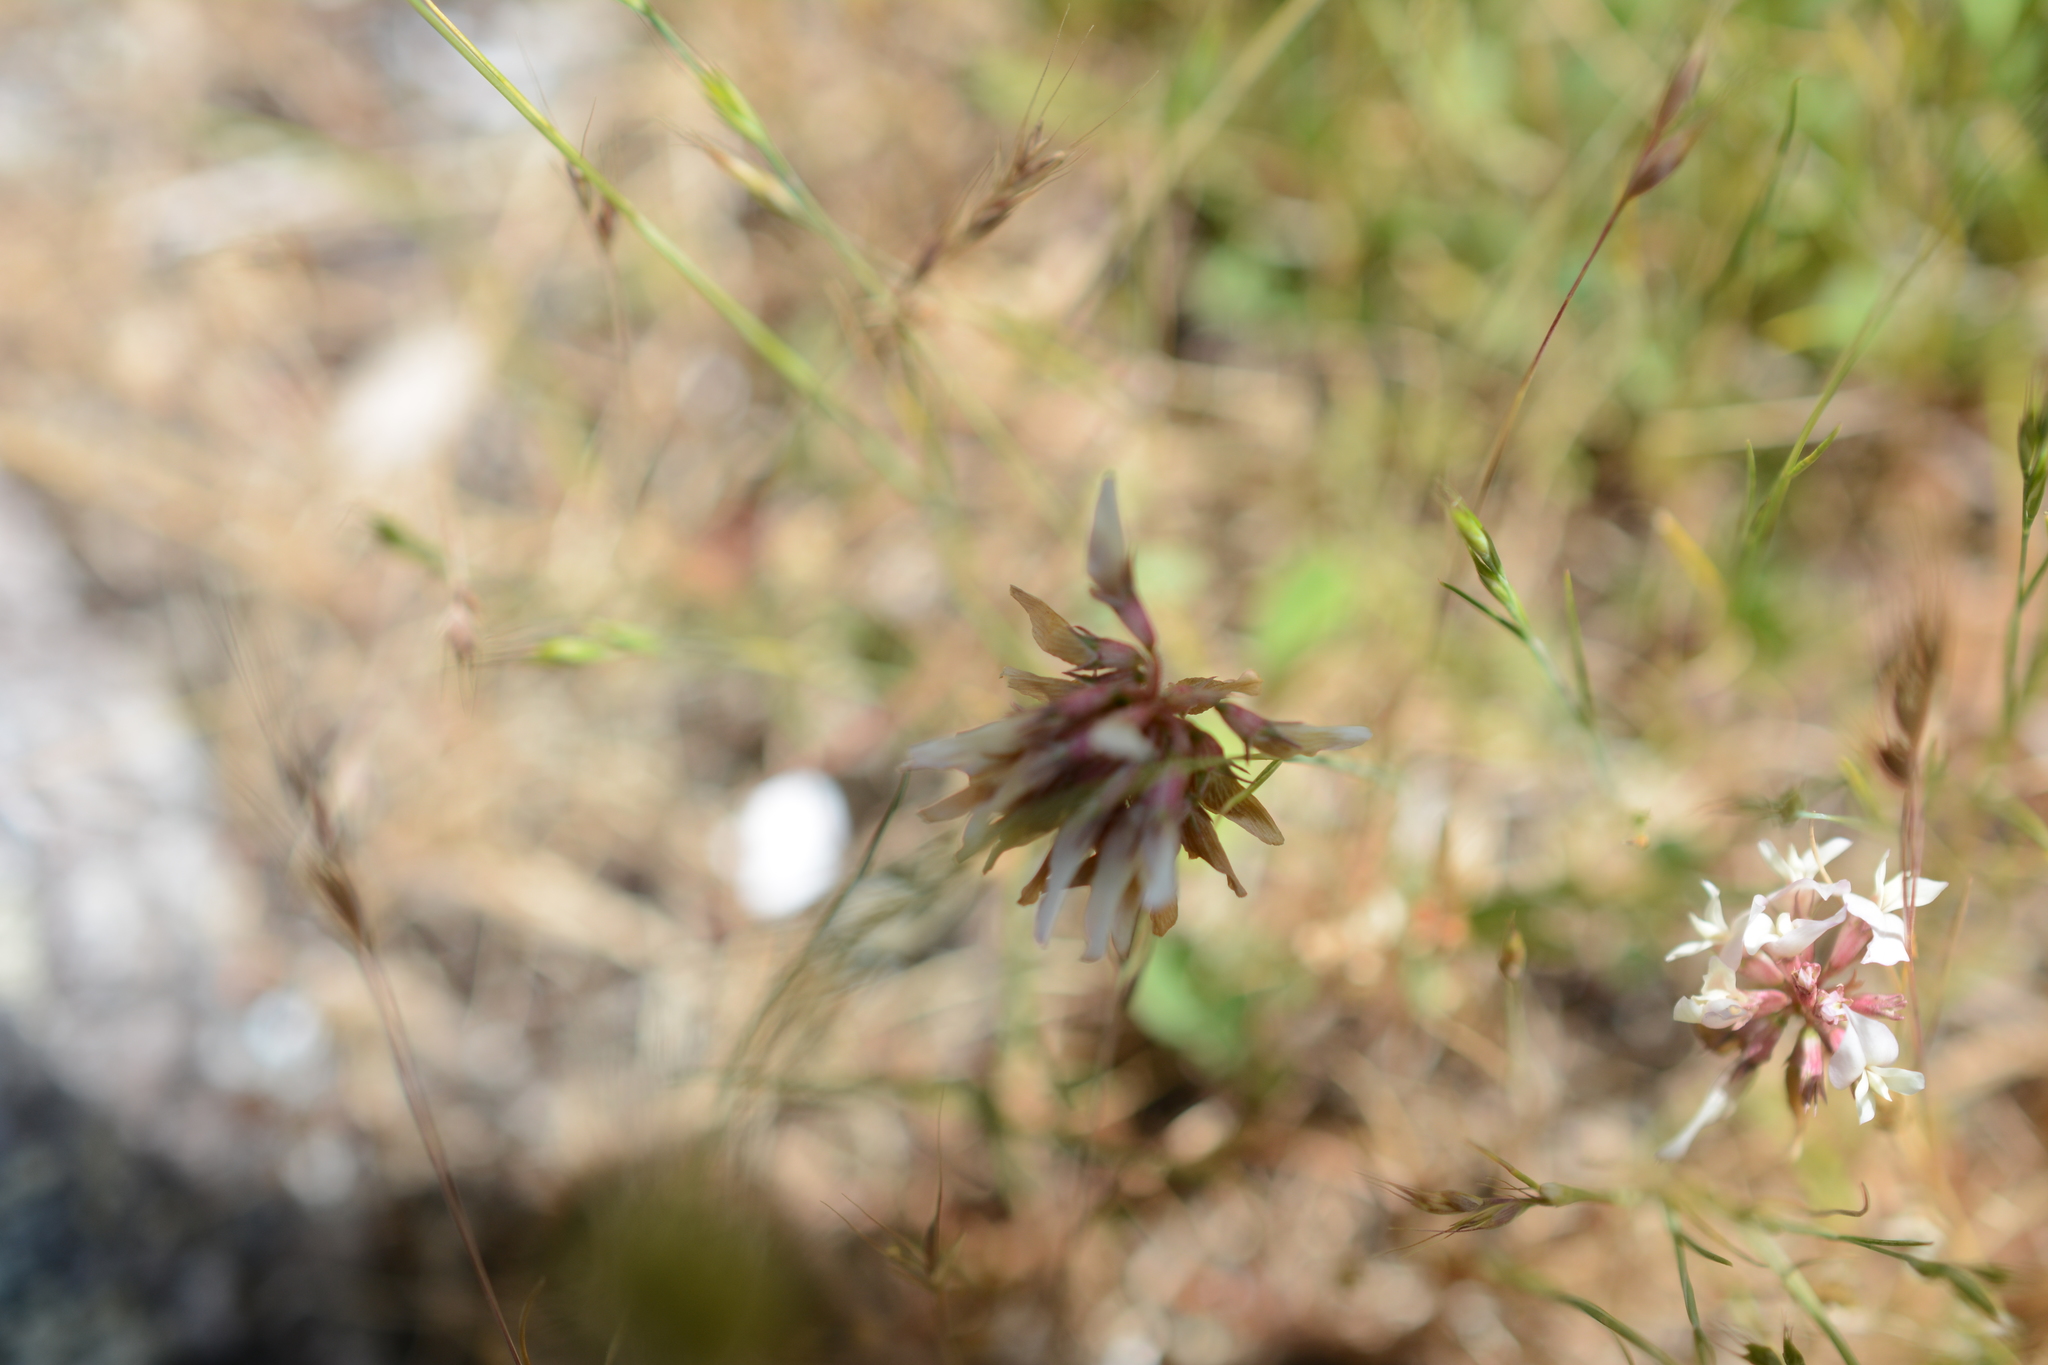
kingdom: Plantae
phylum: Tracheophyta
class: Magnoliopsida
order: Fabales
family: Fabaceae
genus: Trifolium
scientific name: Trifolium repens
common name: White clover
